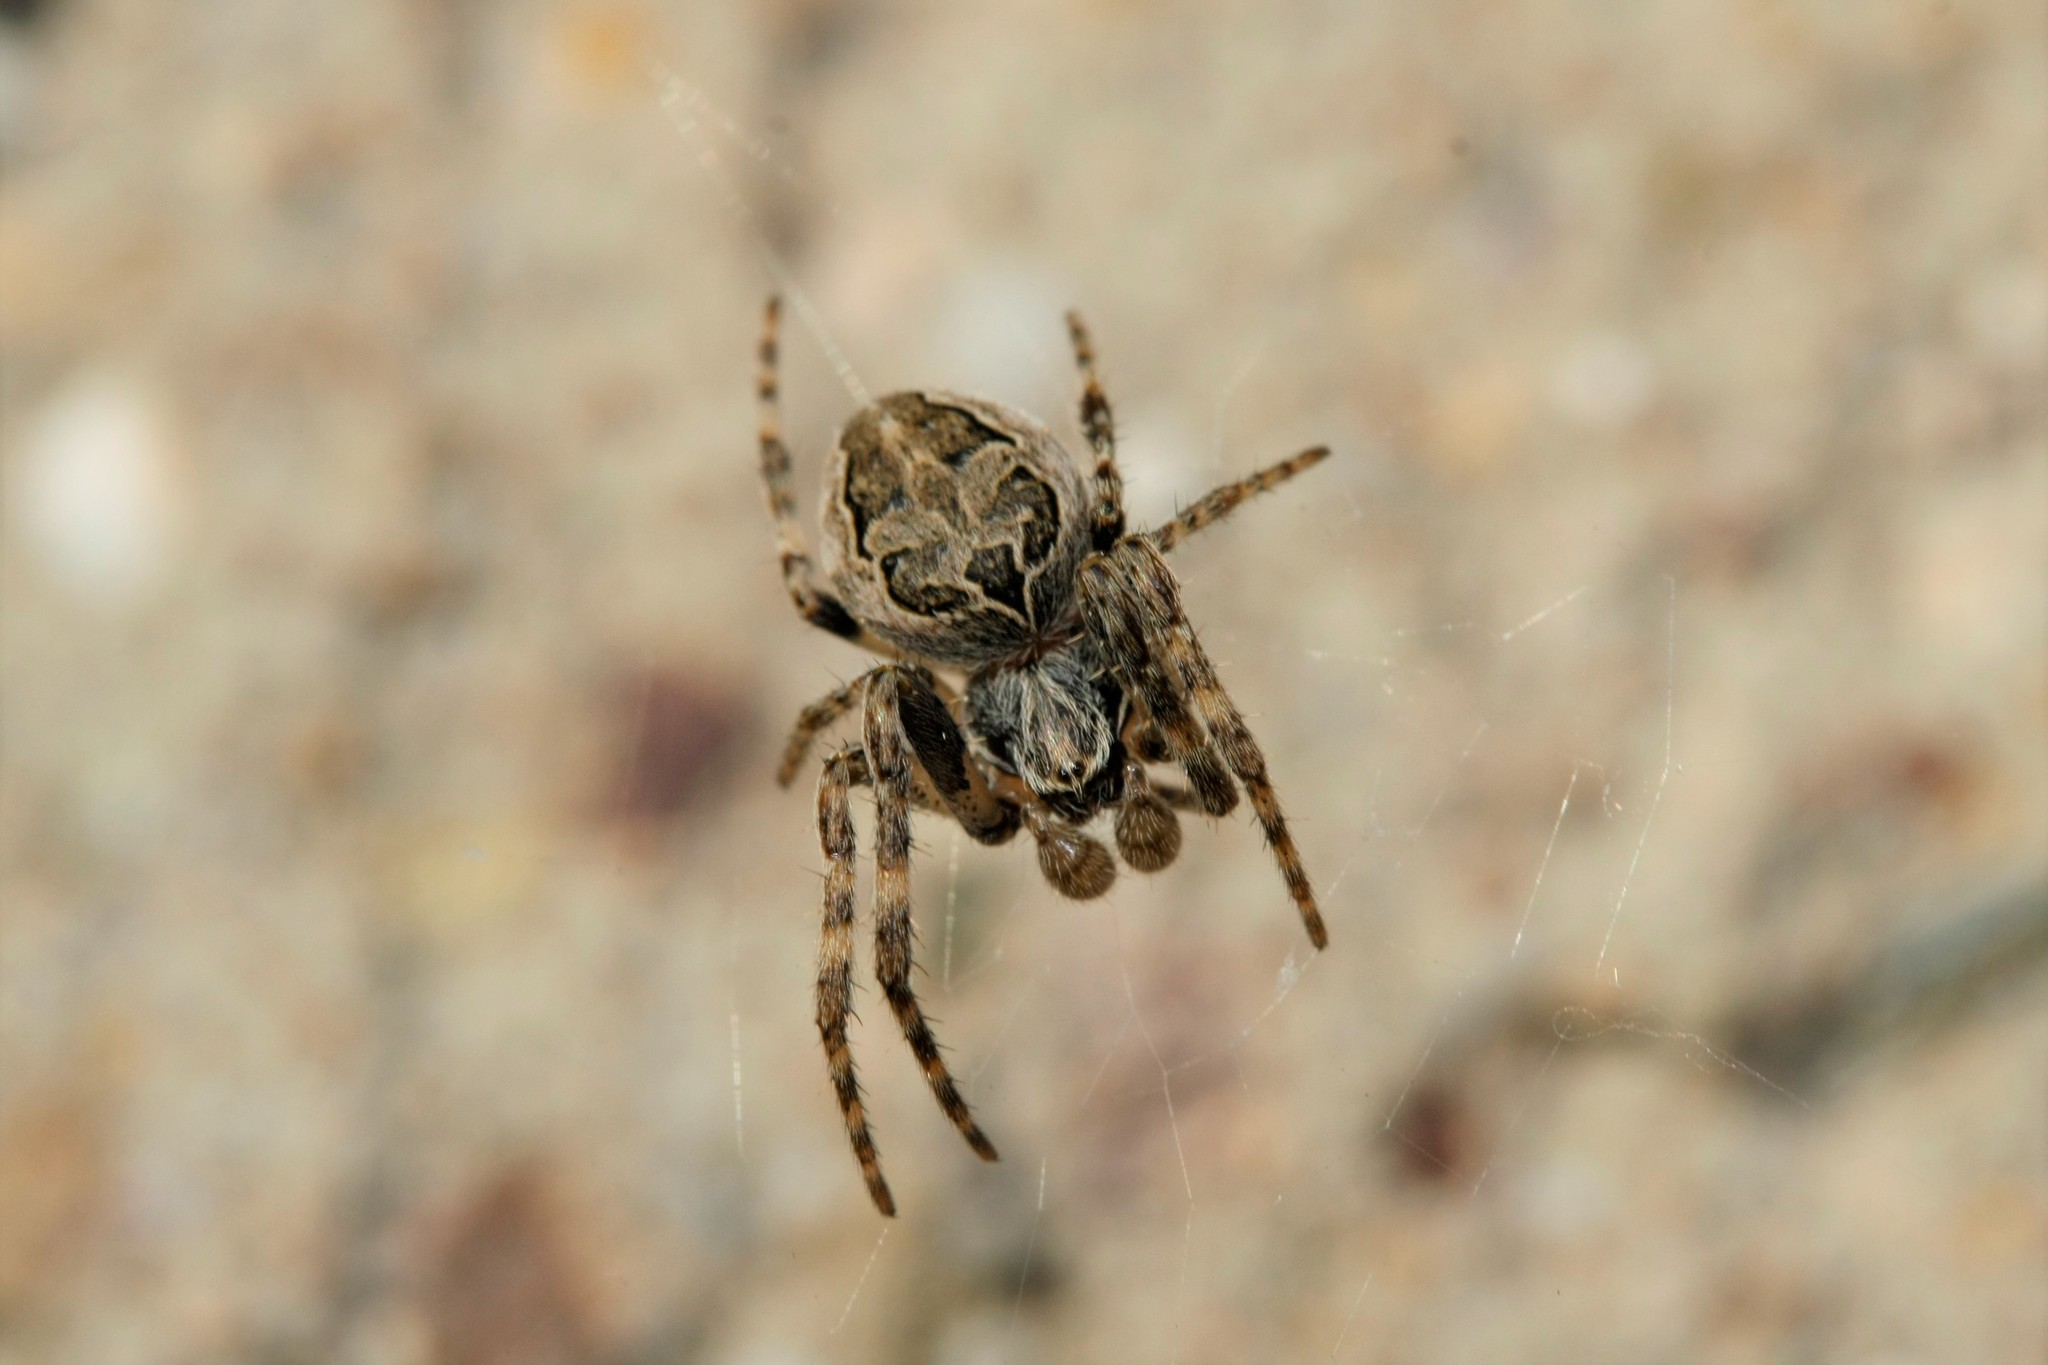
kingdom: Animalia
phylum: Arthropoda
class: Arachnida
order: Araneae
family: Araneidae
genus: Larinioides
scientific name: Larinioides sclopetarius
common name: Bridge orbweaver
